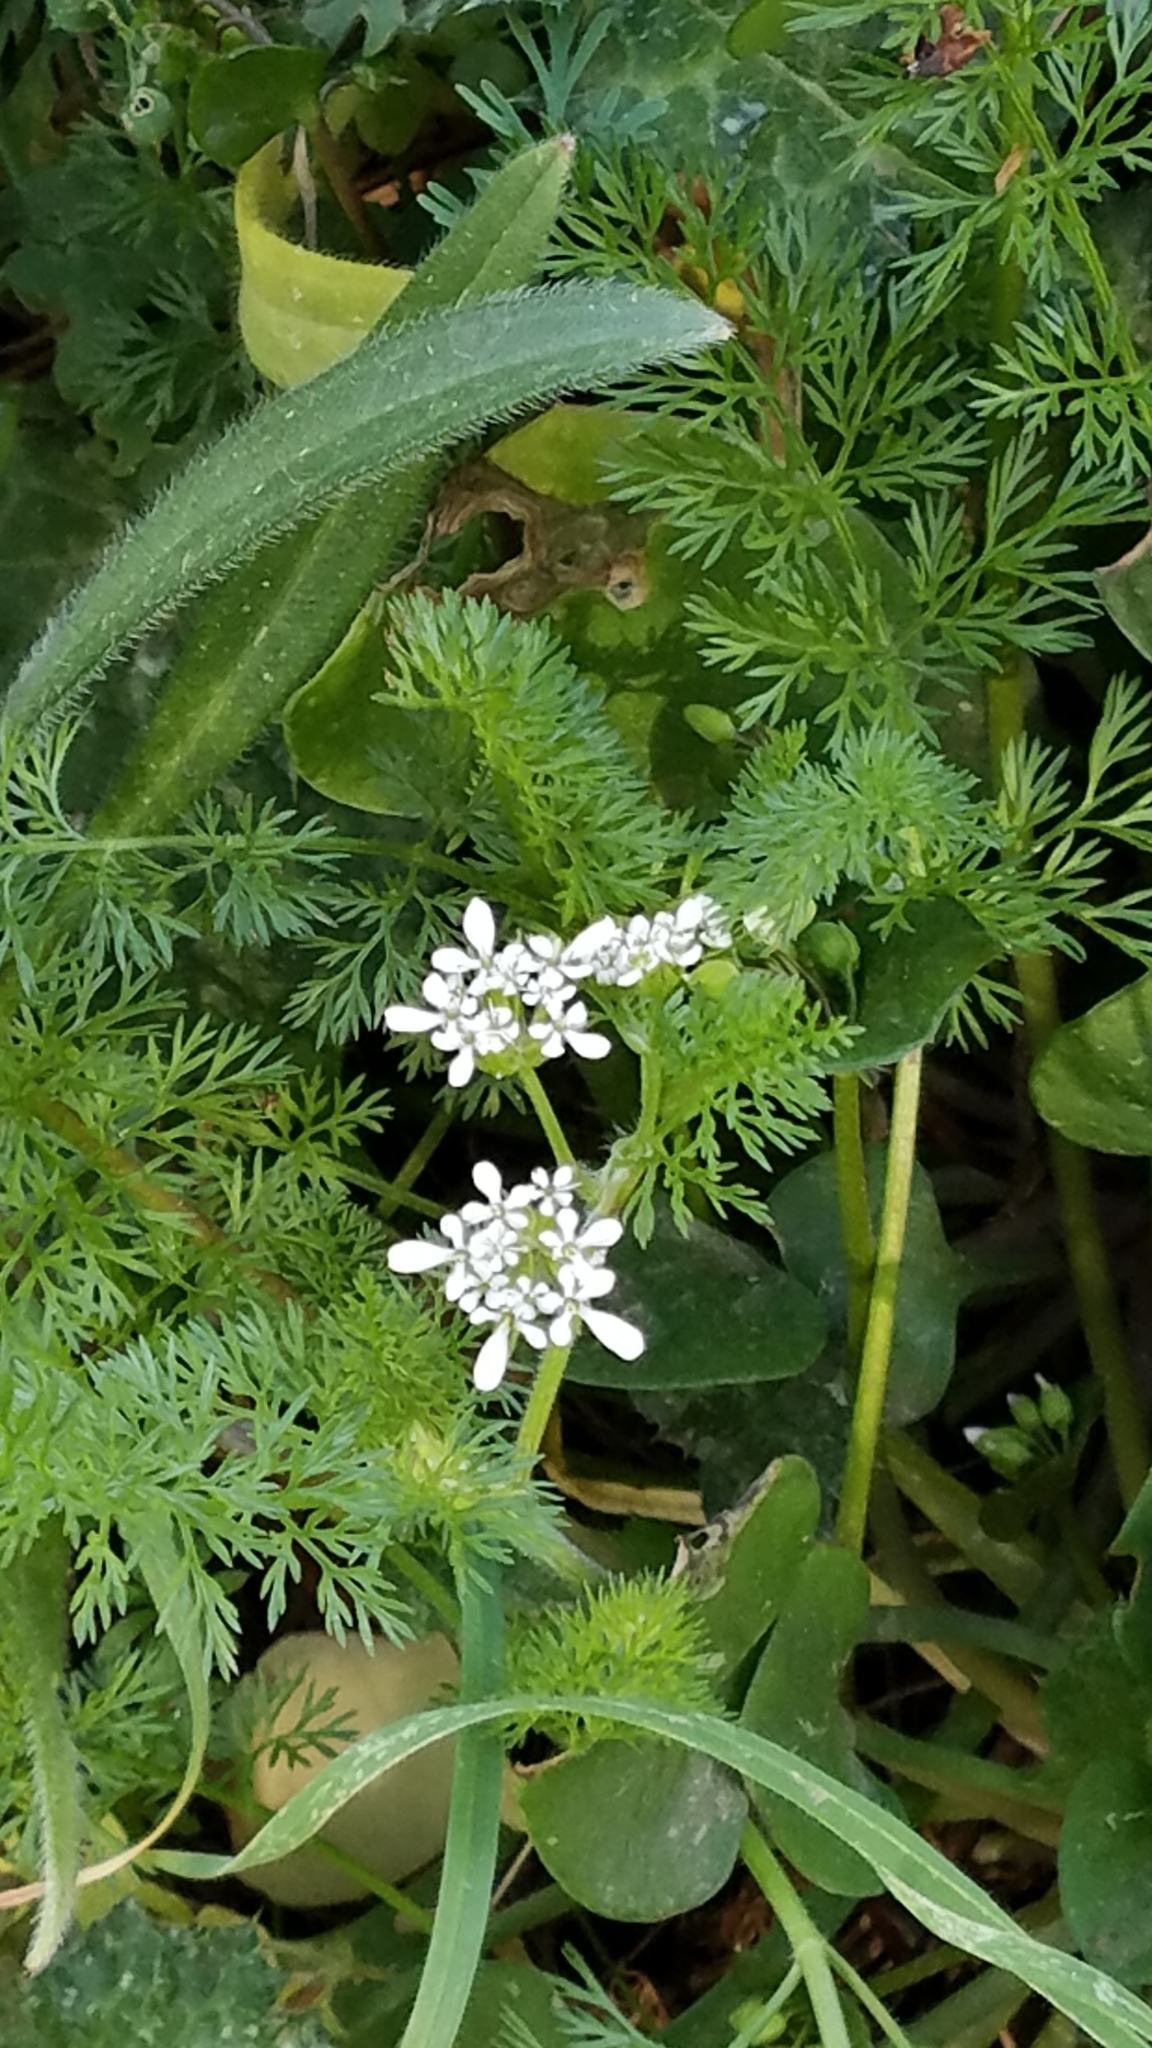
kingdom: Plantae
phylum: Tracheophyta
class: Magnoliopsida
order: Apiales
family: Apiaceae
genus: Scandix
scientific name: Scandix pecten-veneris
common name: Shepherd's-needle
